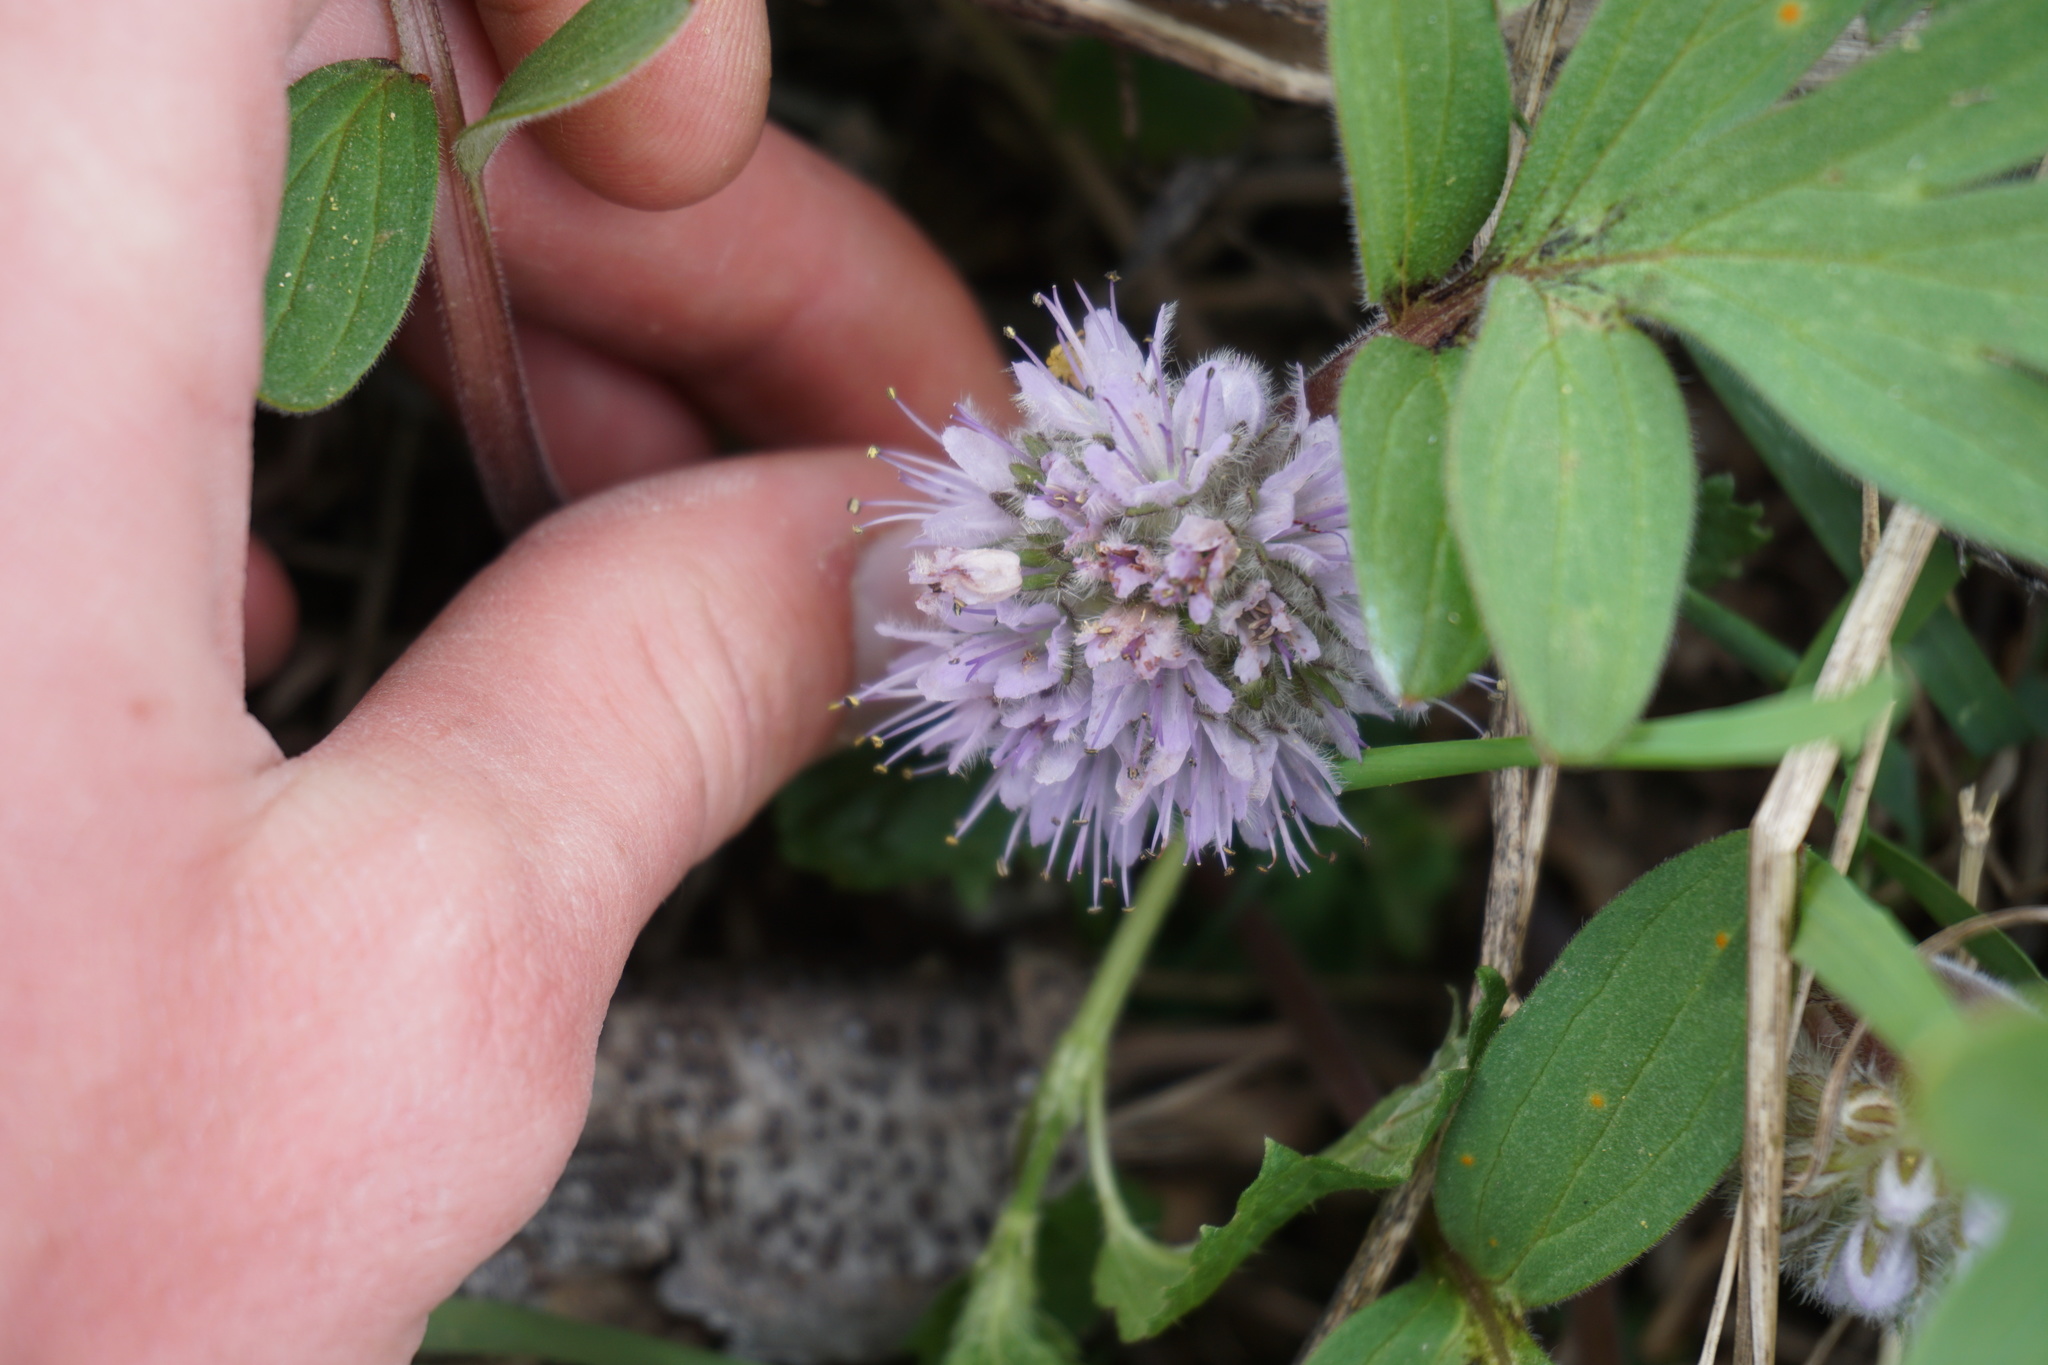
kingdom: Plantae
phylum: Tracheophyta
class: Magnoliopsida
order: Boraginales
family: Hydrophyllaceae
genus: Hydrophyllum
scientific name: Hydrophyllum capitatum
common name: Woollen-breeches
